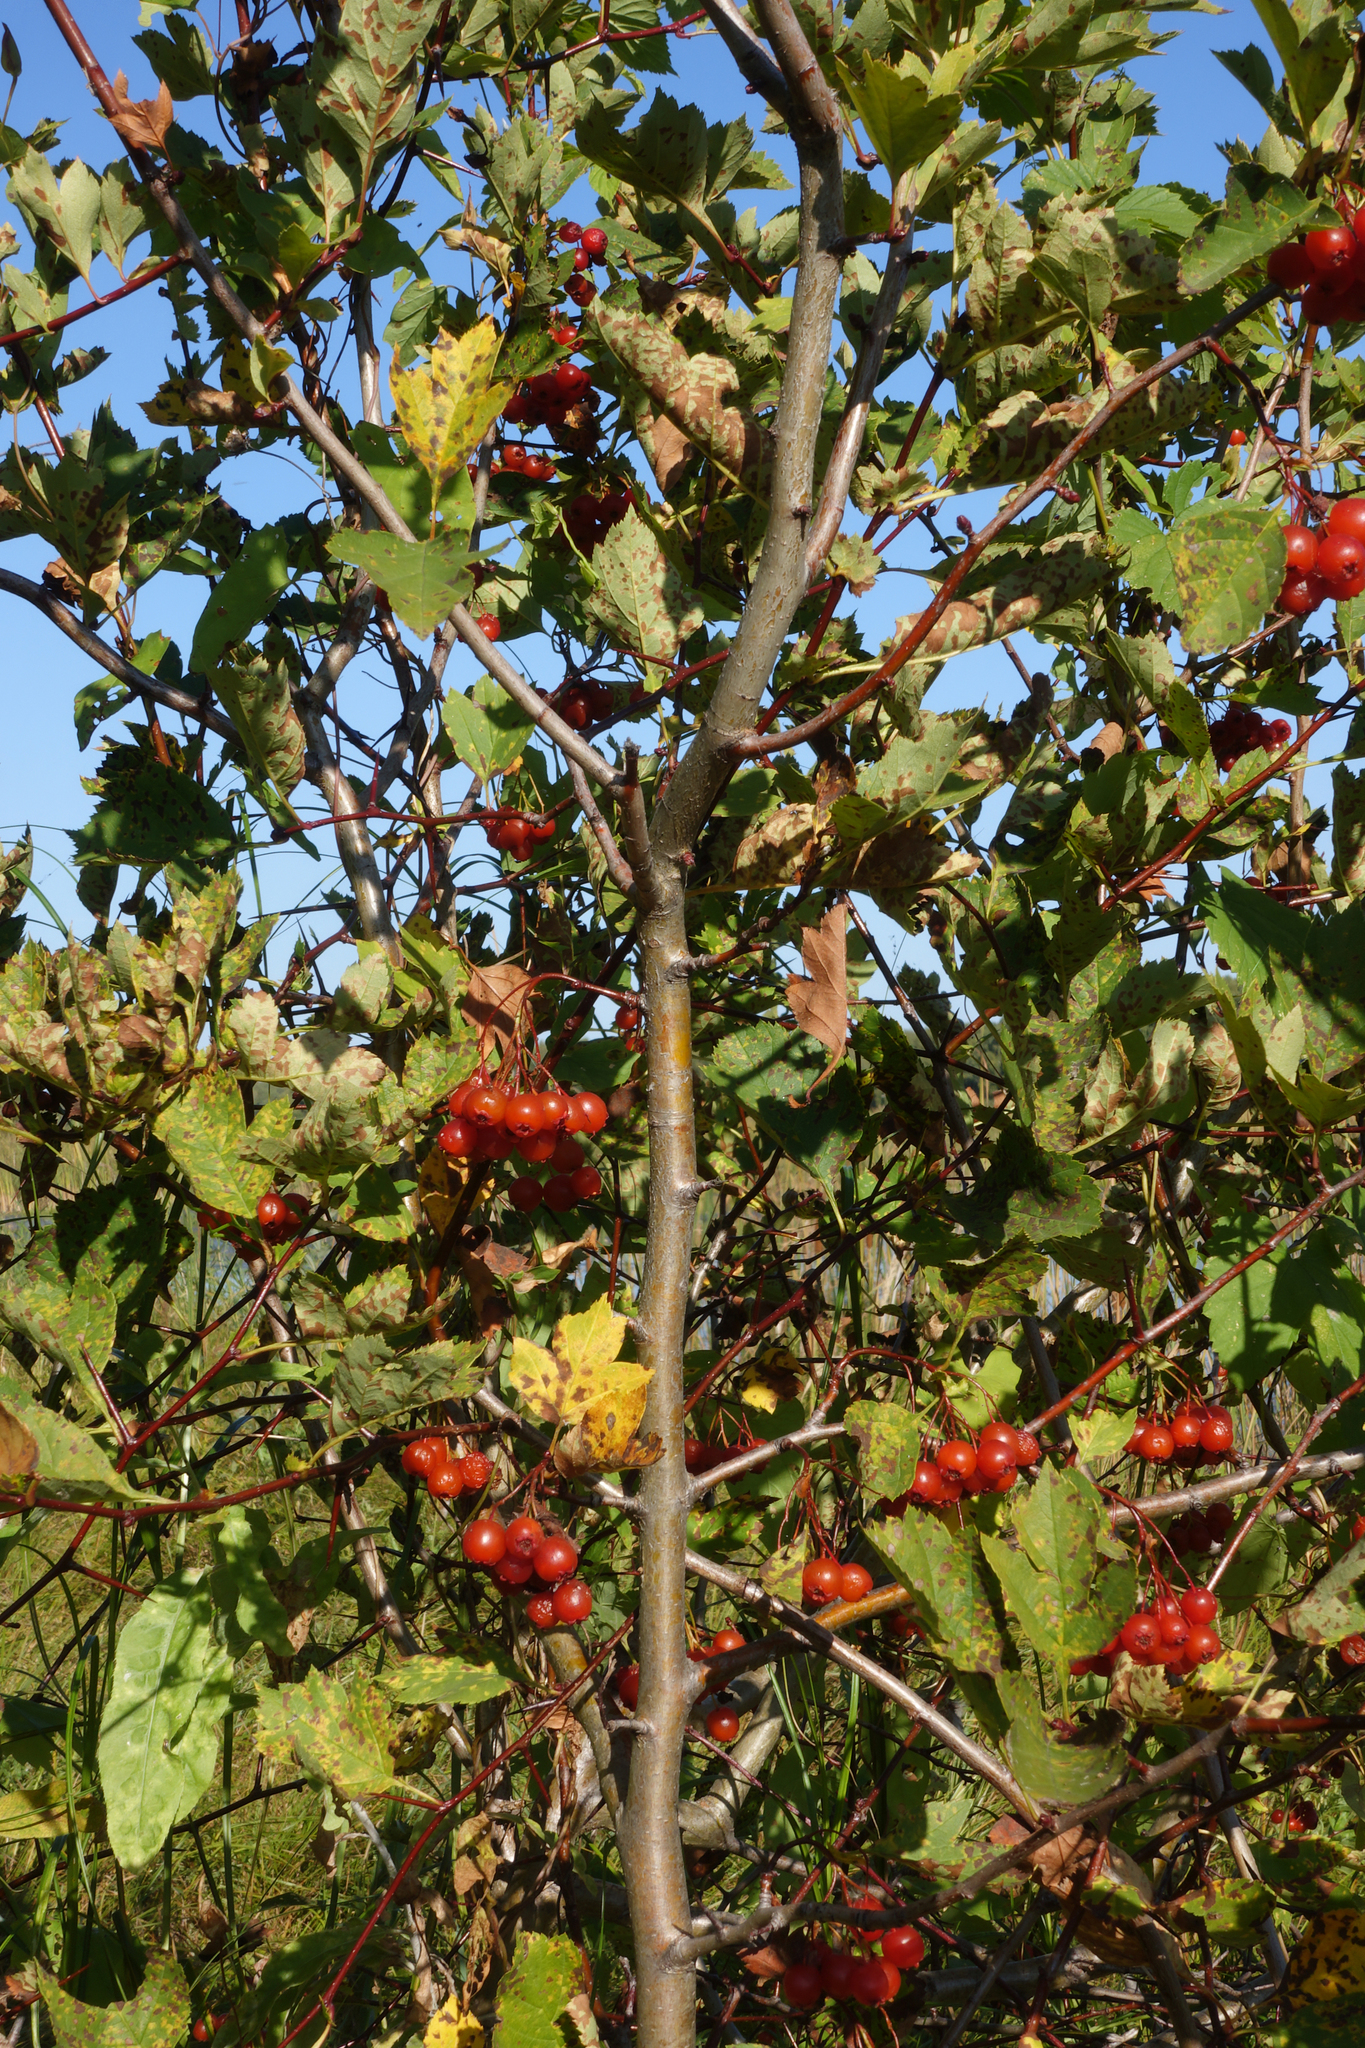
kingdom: Plantae
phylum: Tracheophyta
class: Magnoliopsida
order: Rosales
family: Rosaceae
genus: Crataegus
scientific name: Crataegus sanguinea
